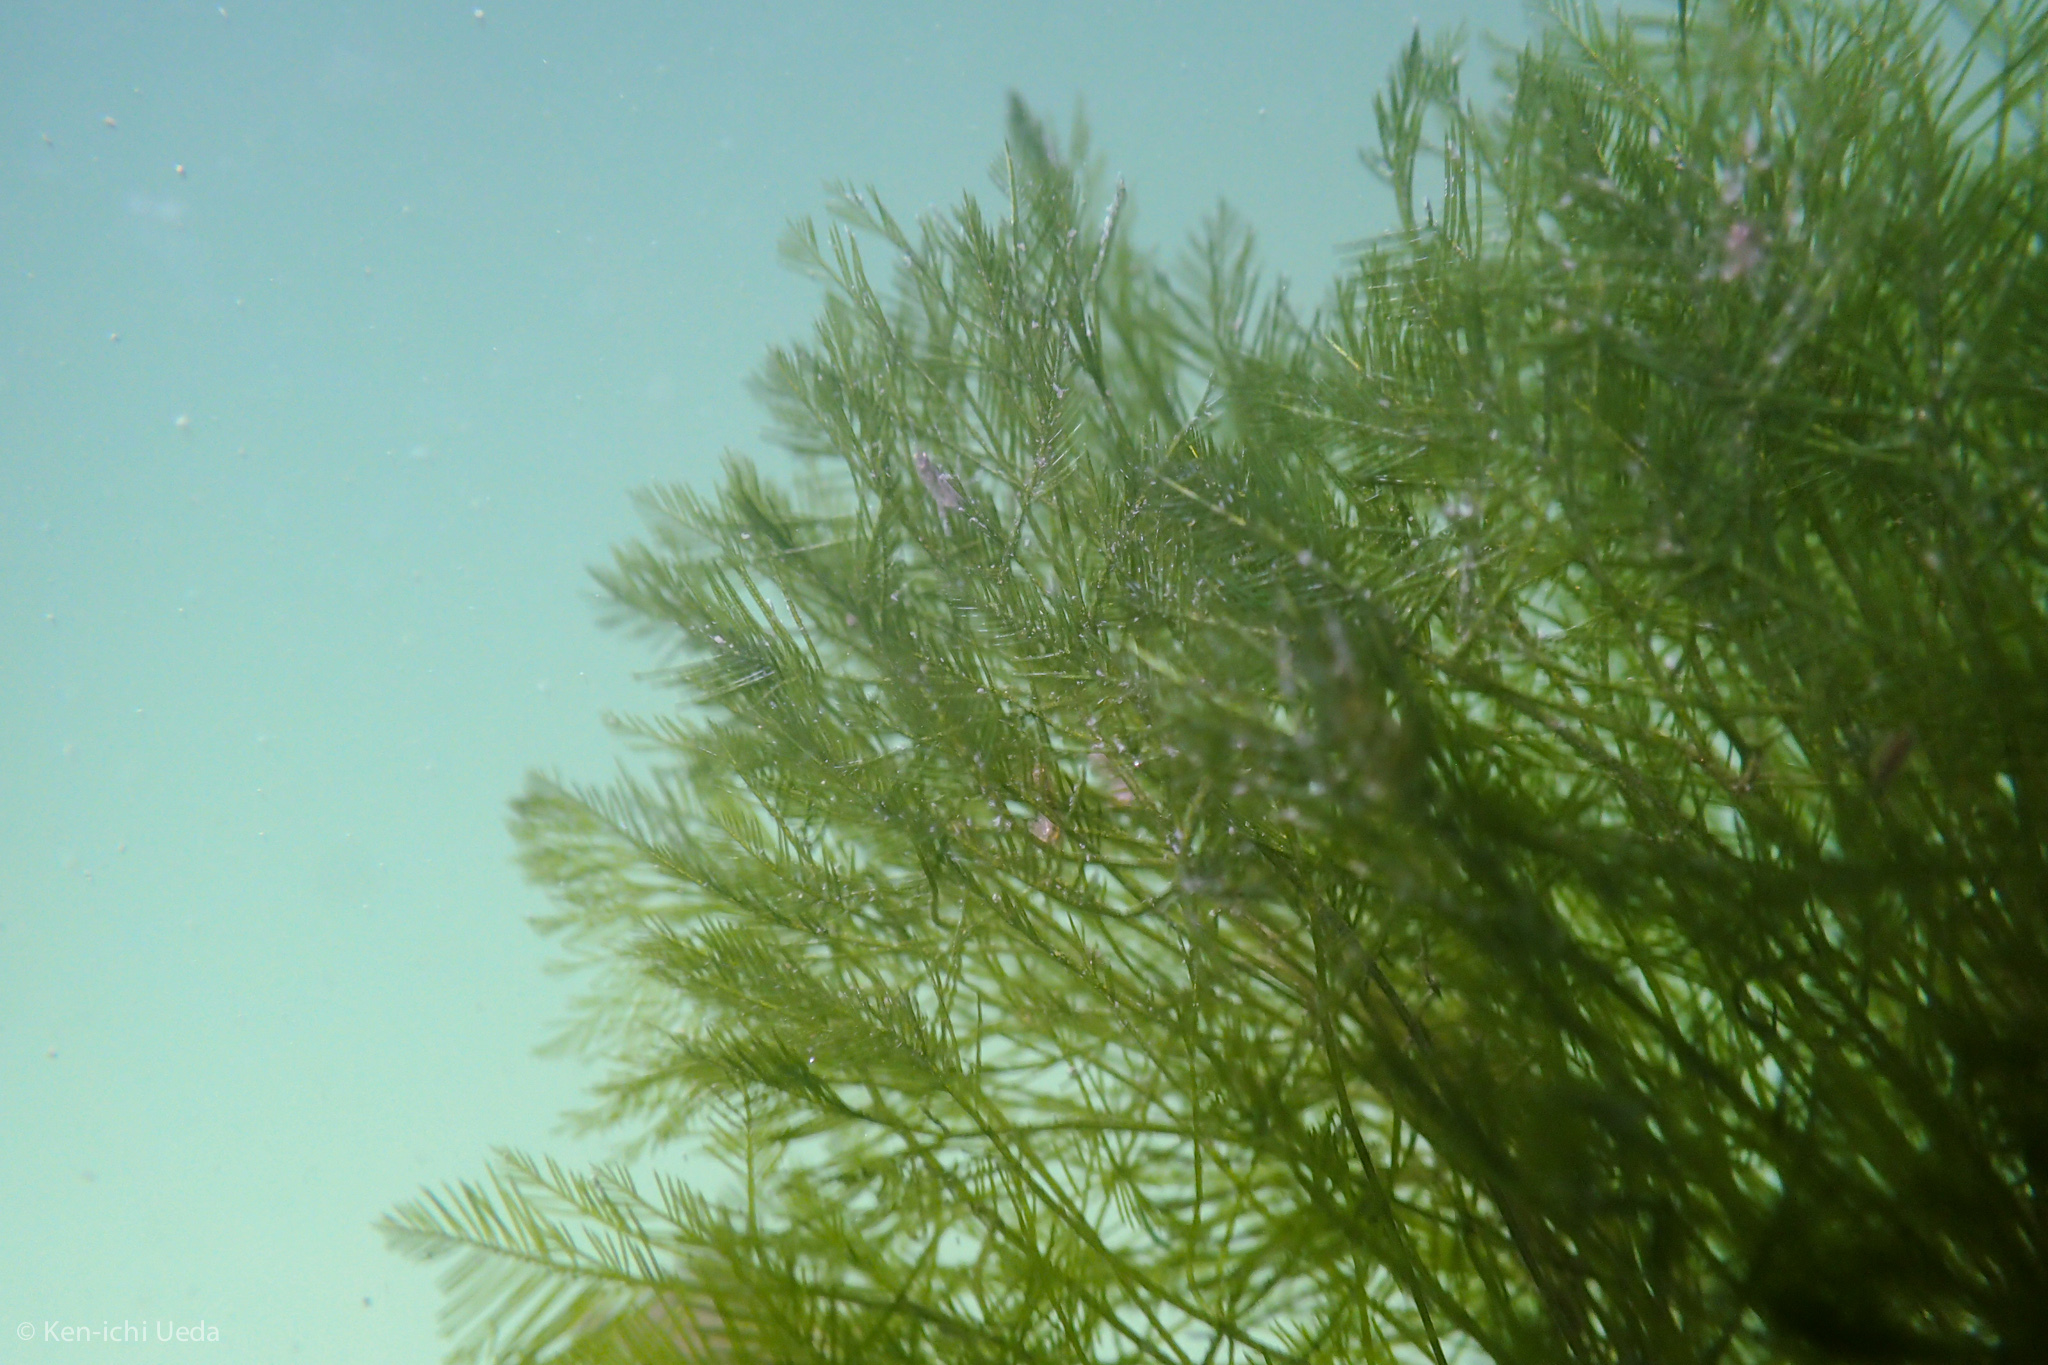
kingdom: Plantae
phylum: Chlorophyta
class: Ulvophyceae
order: Bryopsidales
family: Bryopsidaceae
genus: Bryopsis
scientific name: Bryopsis corticulans
